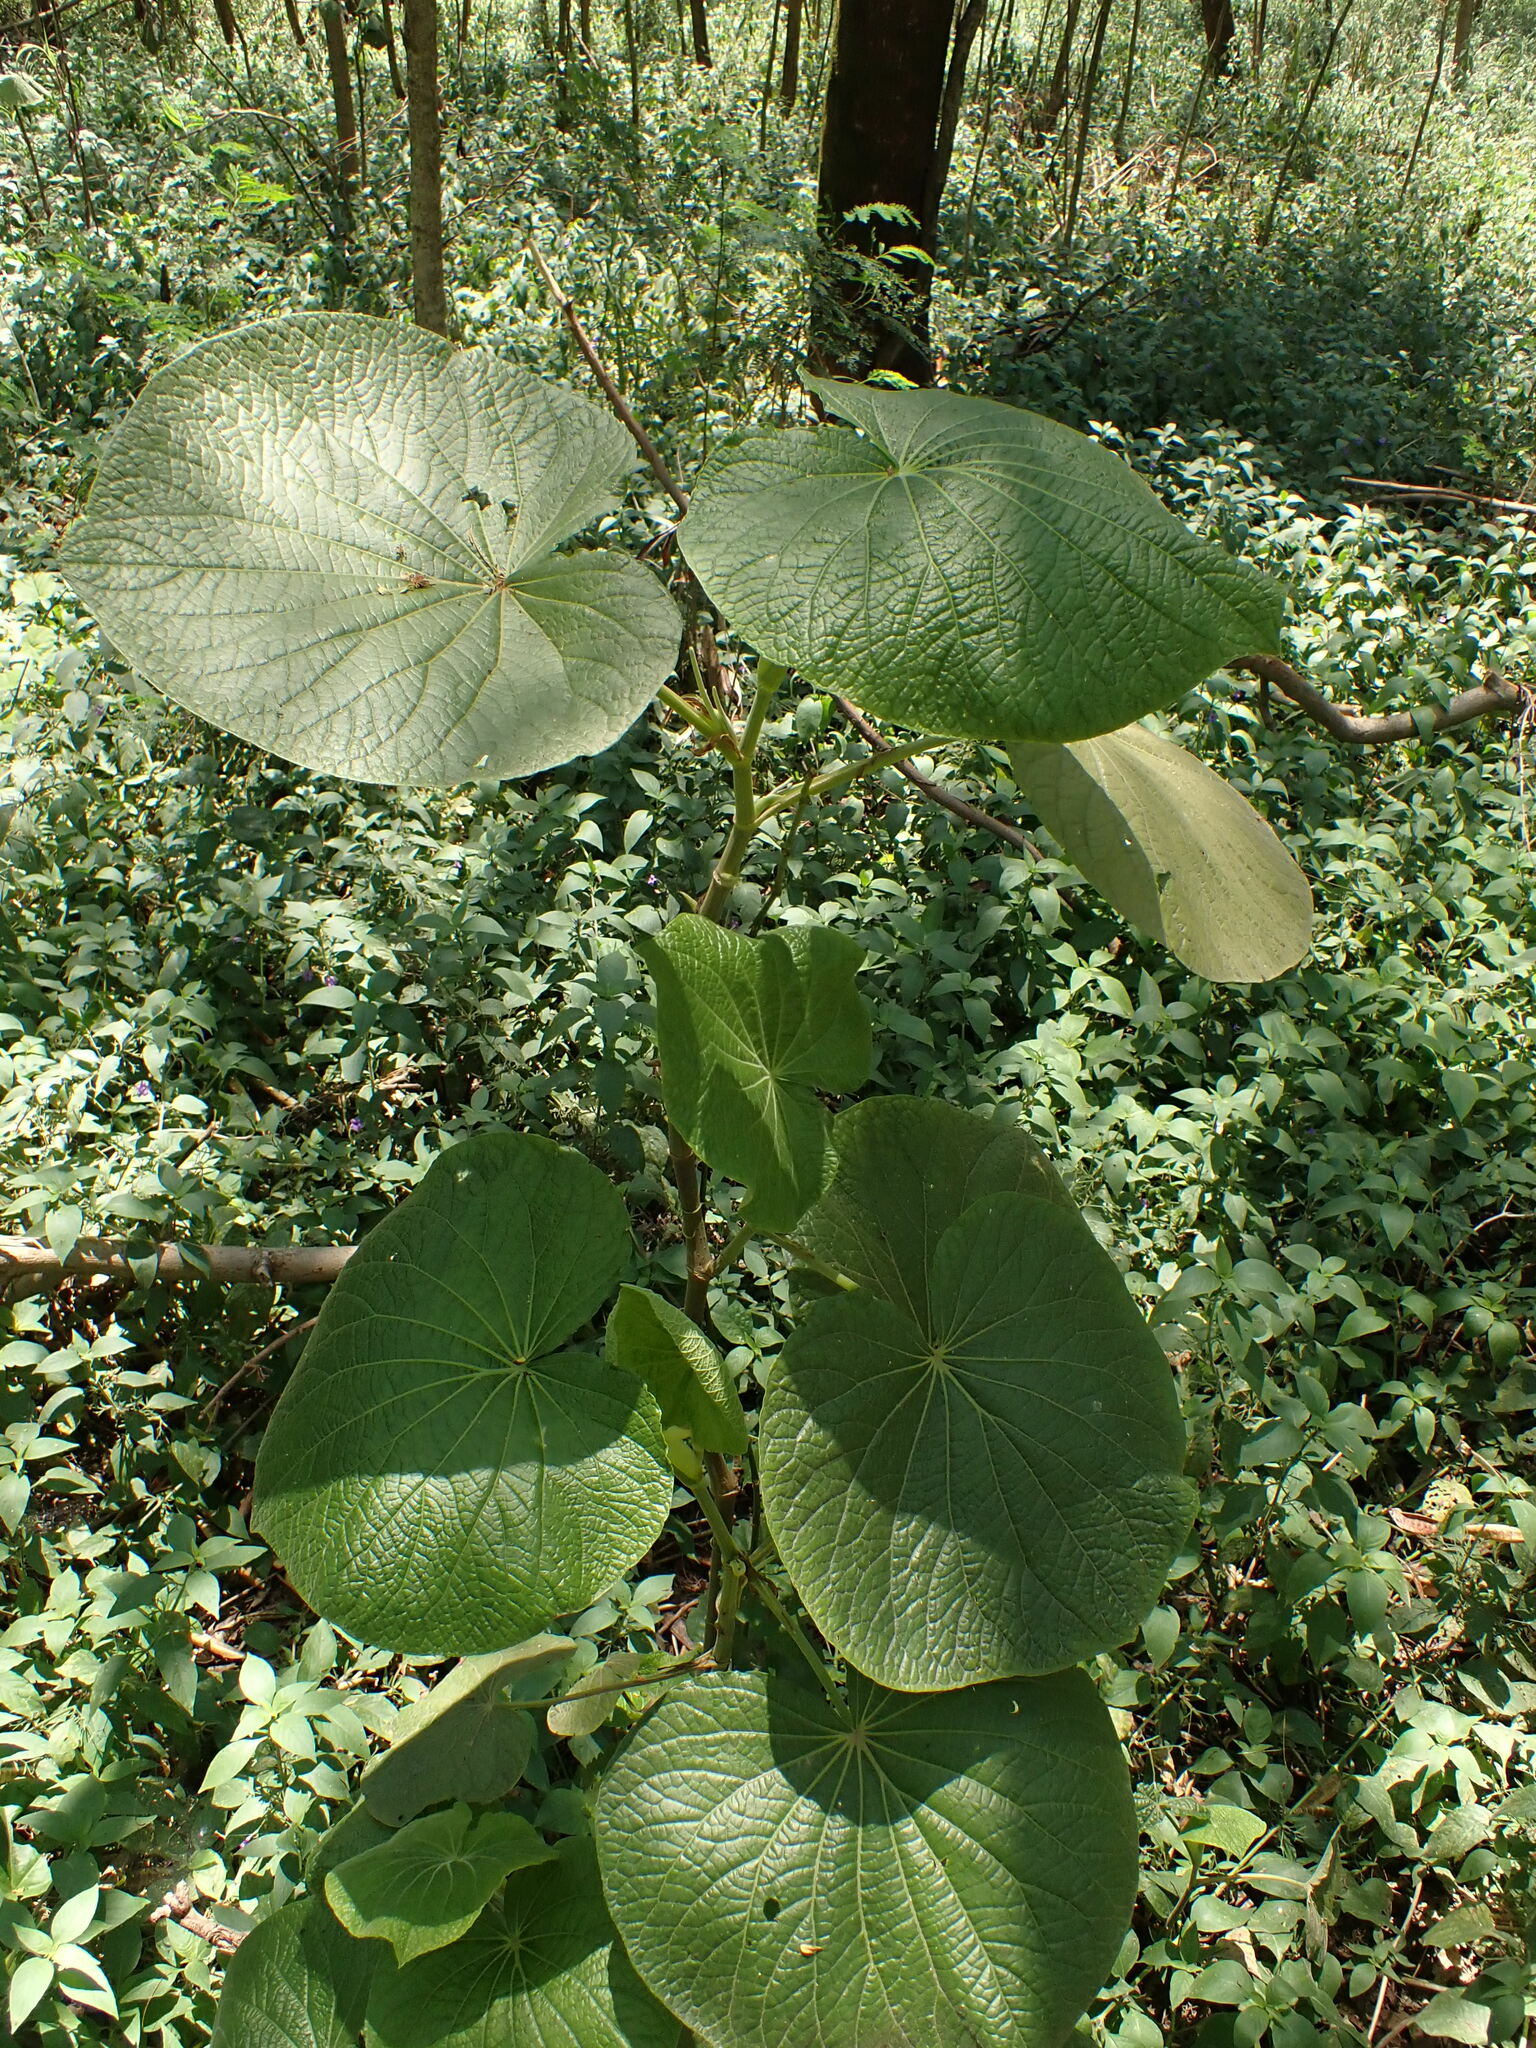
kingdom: Plantae
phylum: Tracheophyta
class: Magnoliopsida
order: Piperales
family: Piperaceae
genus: Piper
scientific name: Piper umbellatum
